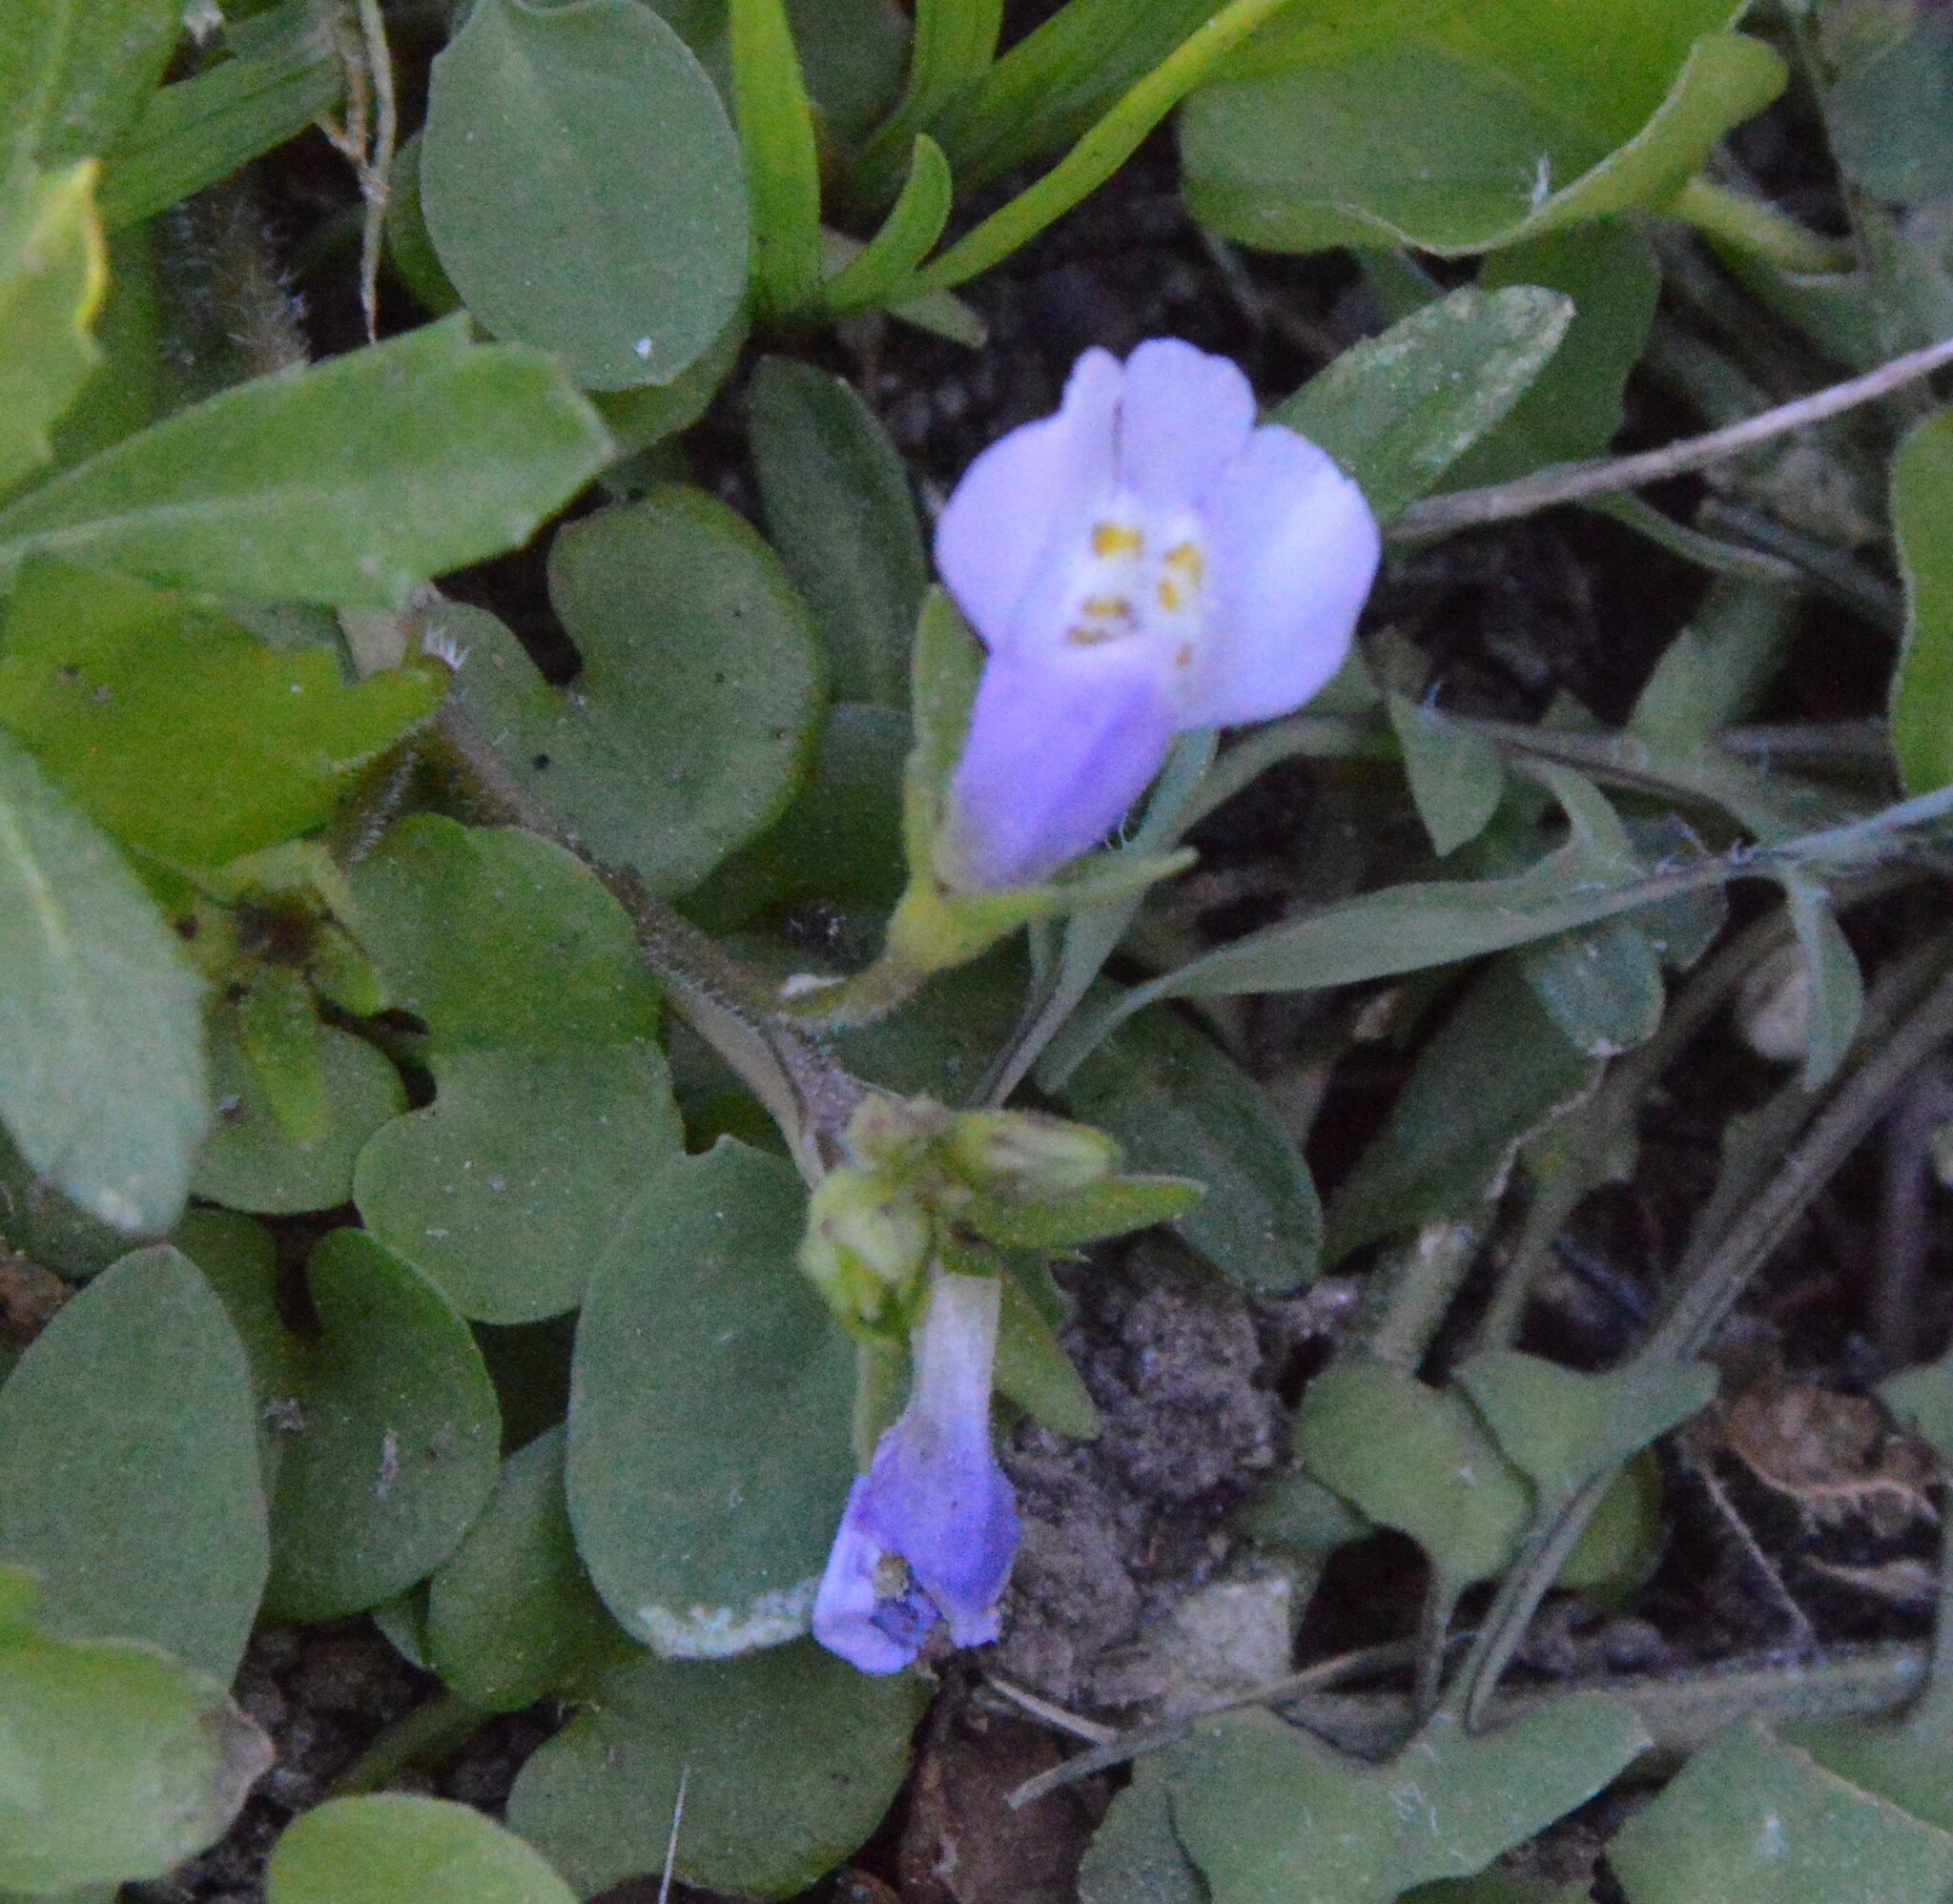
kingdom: Plantae
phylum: Tracheophyta
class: Magnoliopsida
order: Lamiales
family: Mazaceae
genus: Mazus
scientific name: Mazus pumilus
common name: Japanese mazus
